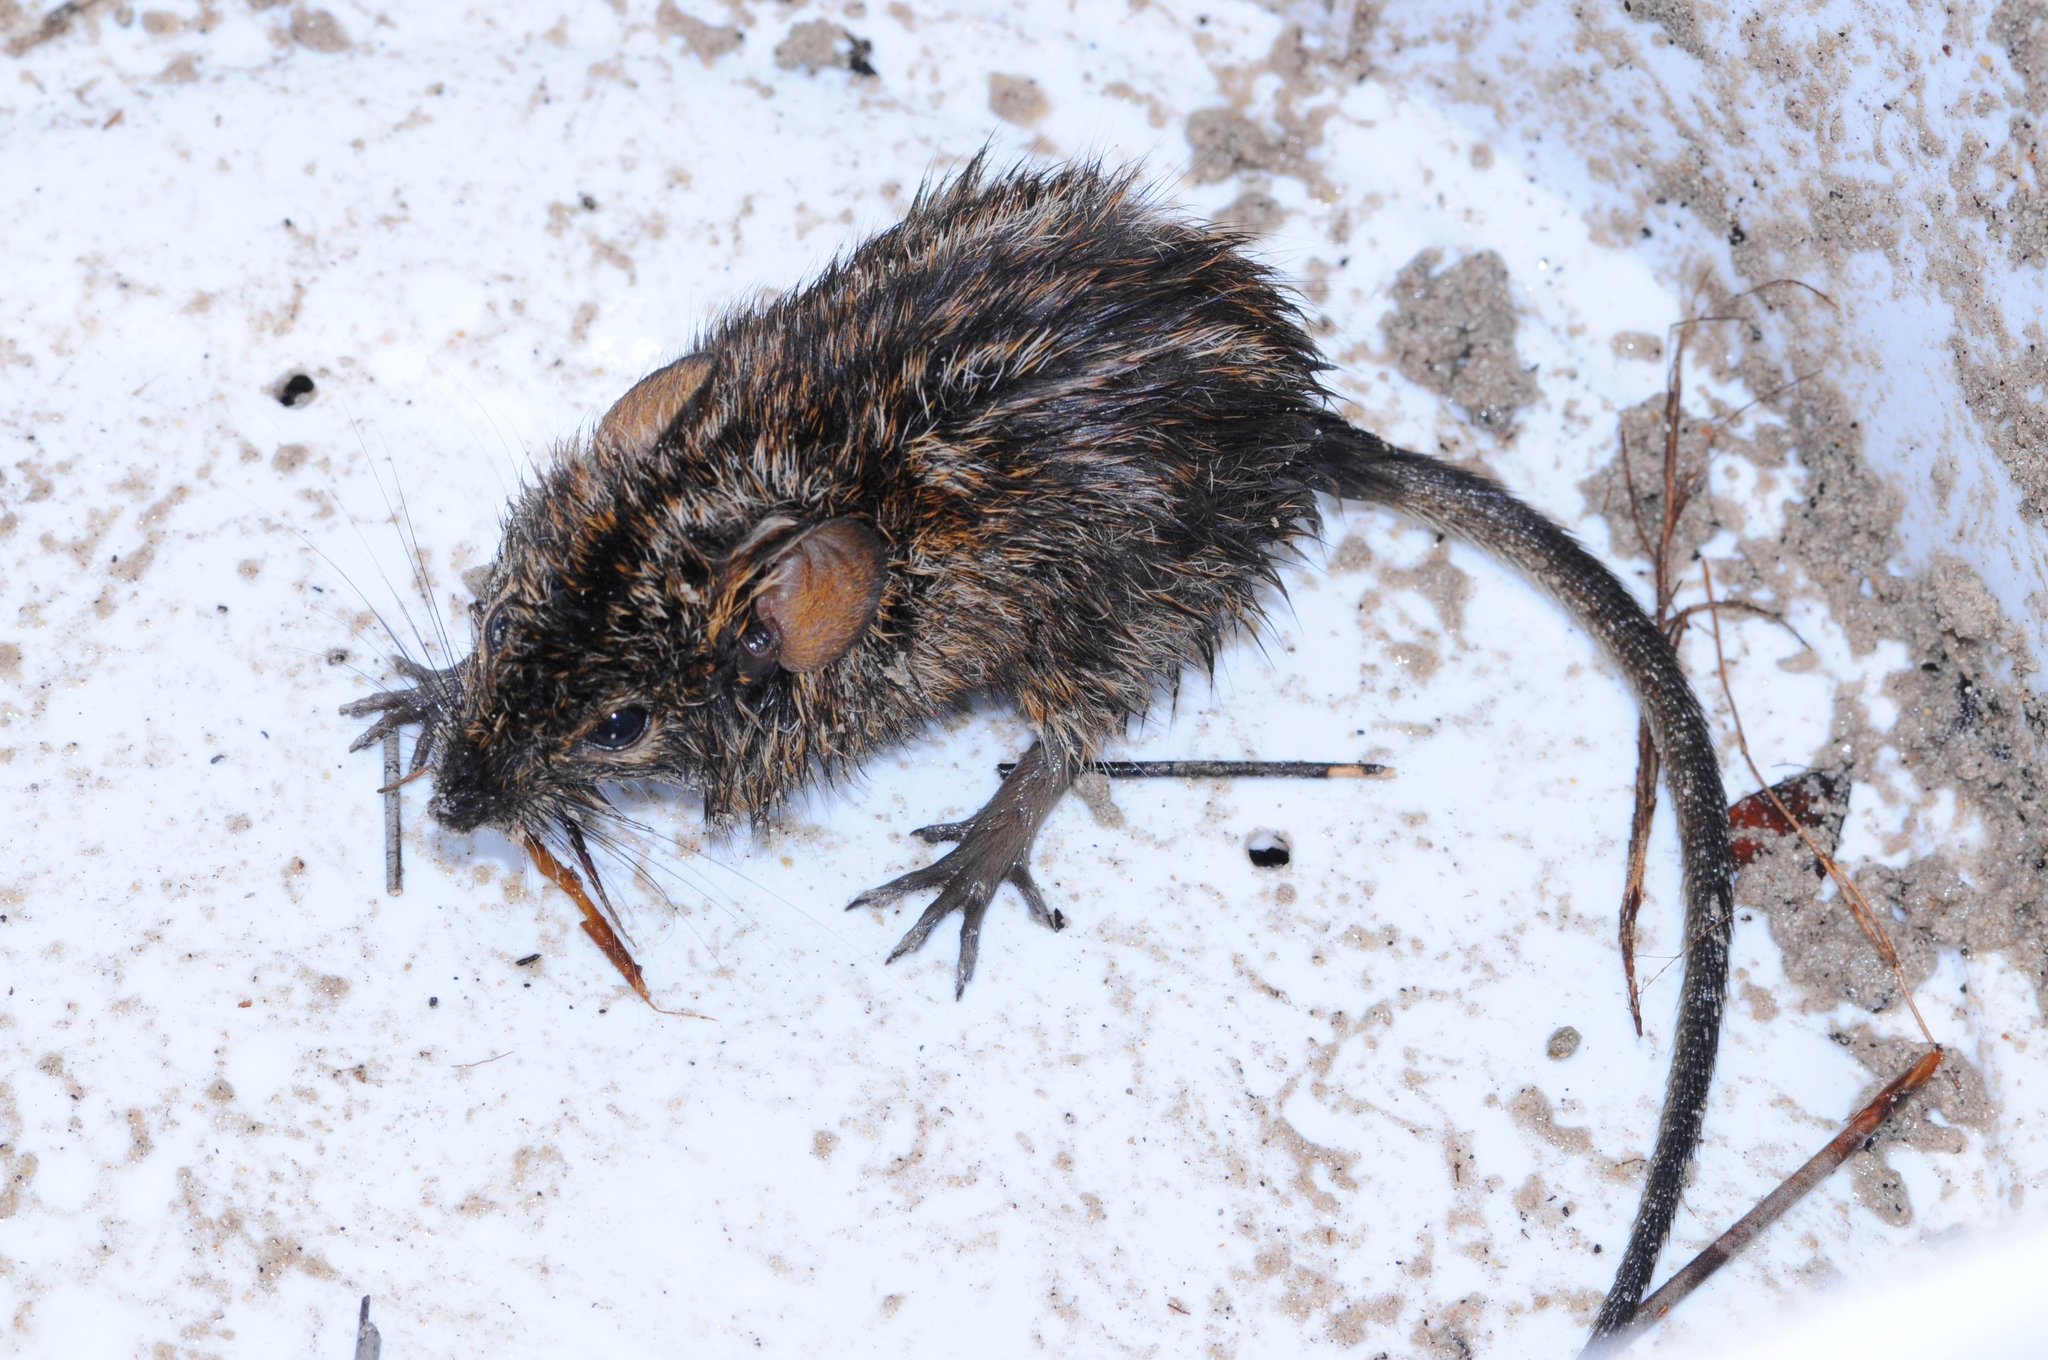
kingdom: Animalia
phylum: Chordata
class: Mammalia
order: Rodentia
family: Muridae
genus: Rhabdomys
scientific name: Rhabdomys pumilio
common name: Xeric four-striped grass rat
